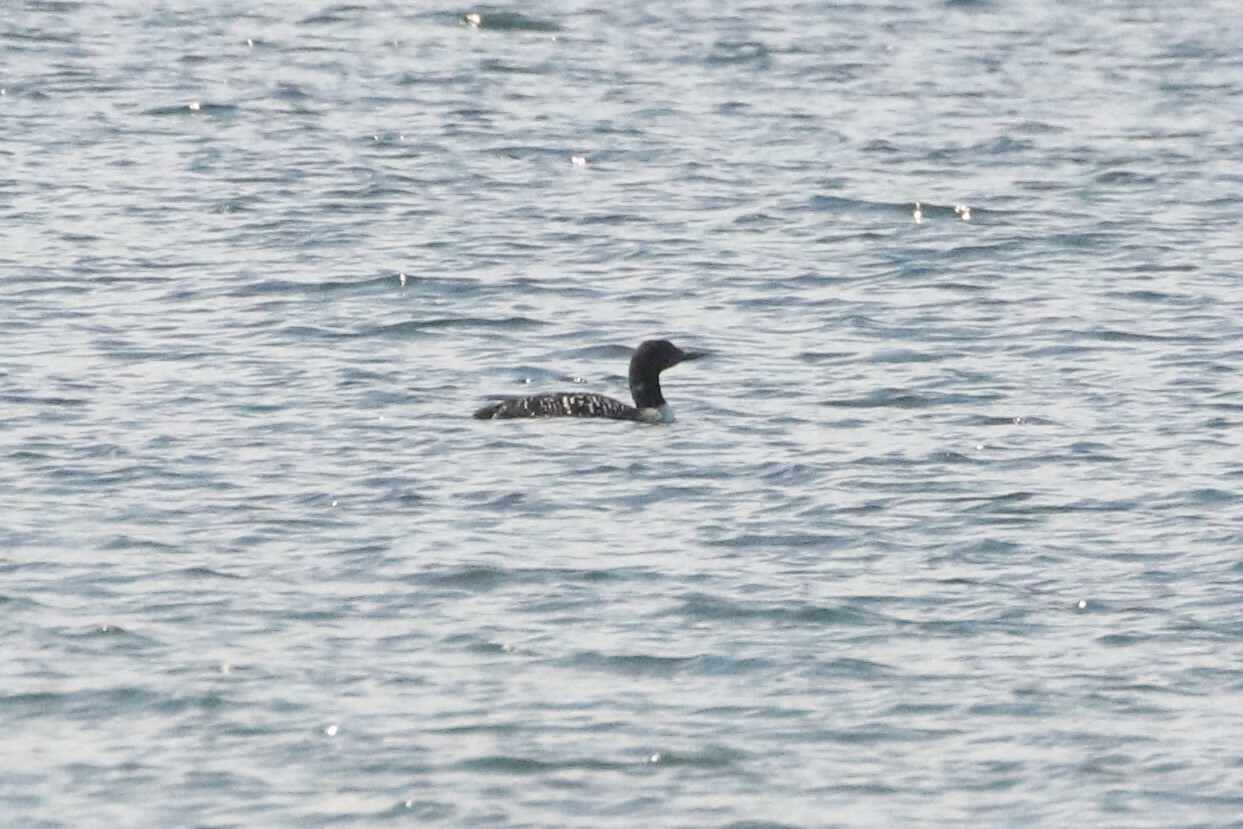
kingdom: Animalia
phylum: Chordata
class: Aves
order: Gaviiformes
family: Gaviidae
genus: Gavia
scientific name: Gavia immer
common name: Common loon
